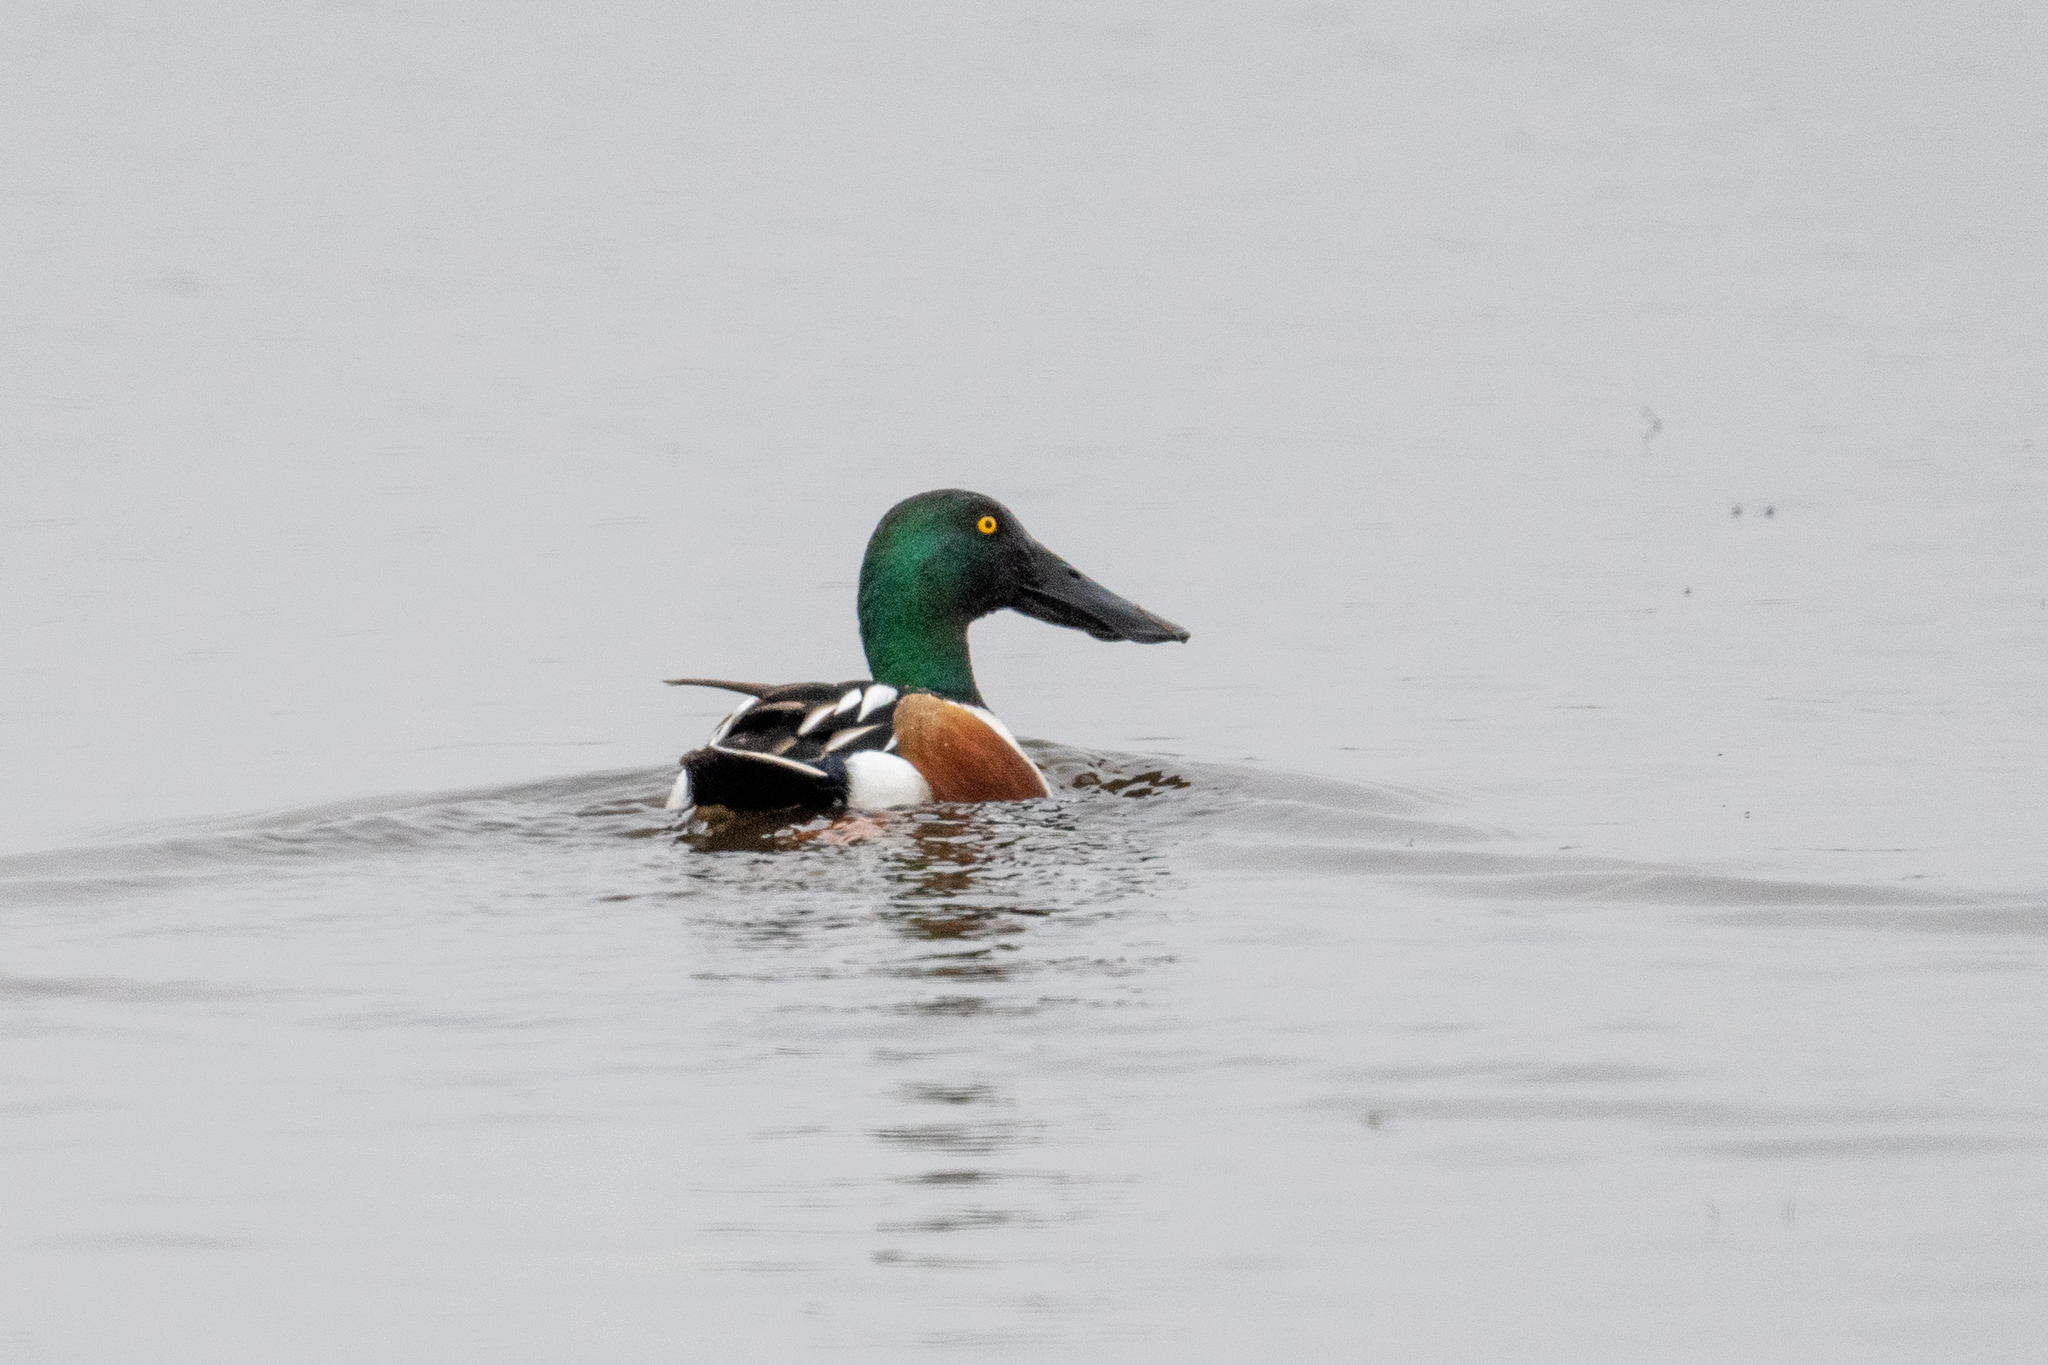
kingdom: Animalia
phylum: Chordata
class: Aves
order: Anseriformes
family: Anatidae
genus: Spatula
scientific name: Spatula clypeata
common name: Northern shoveler
